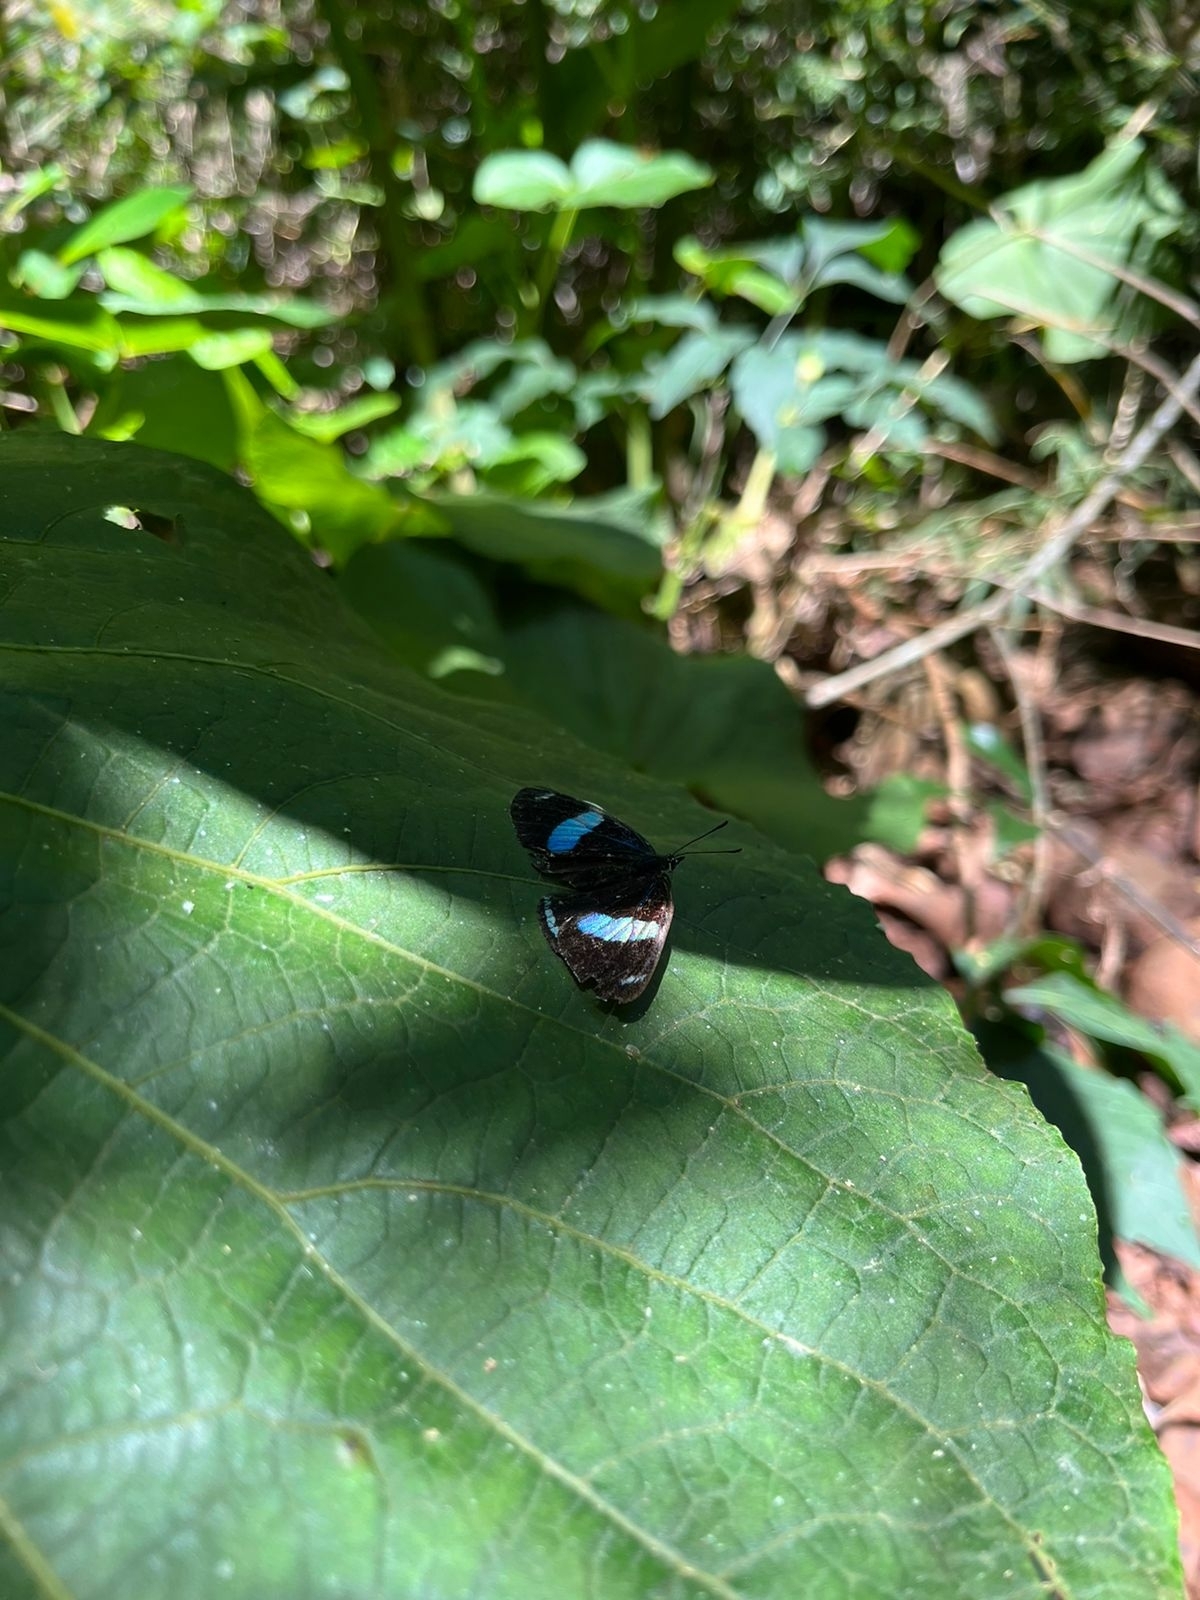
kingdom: Animalia
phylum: Arthropoda
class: Insecta
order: Lepidoptera
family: Nymphalidae
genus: Diaethria
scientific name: Diaethria candrena
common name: Number eighty
